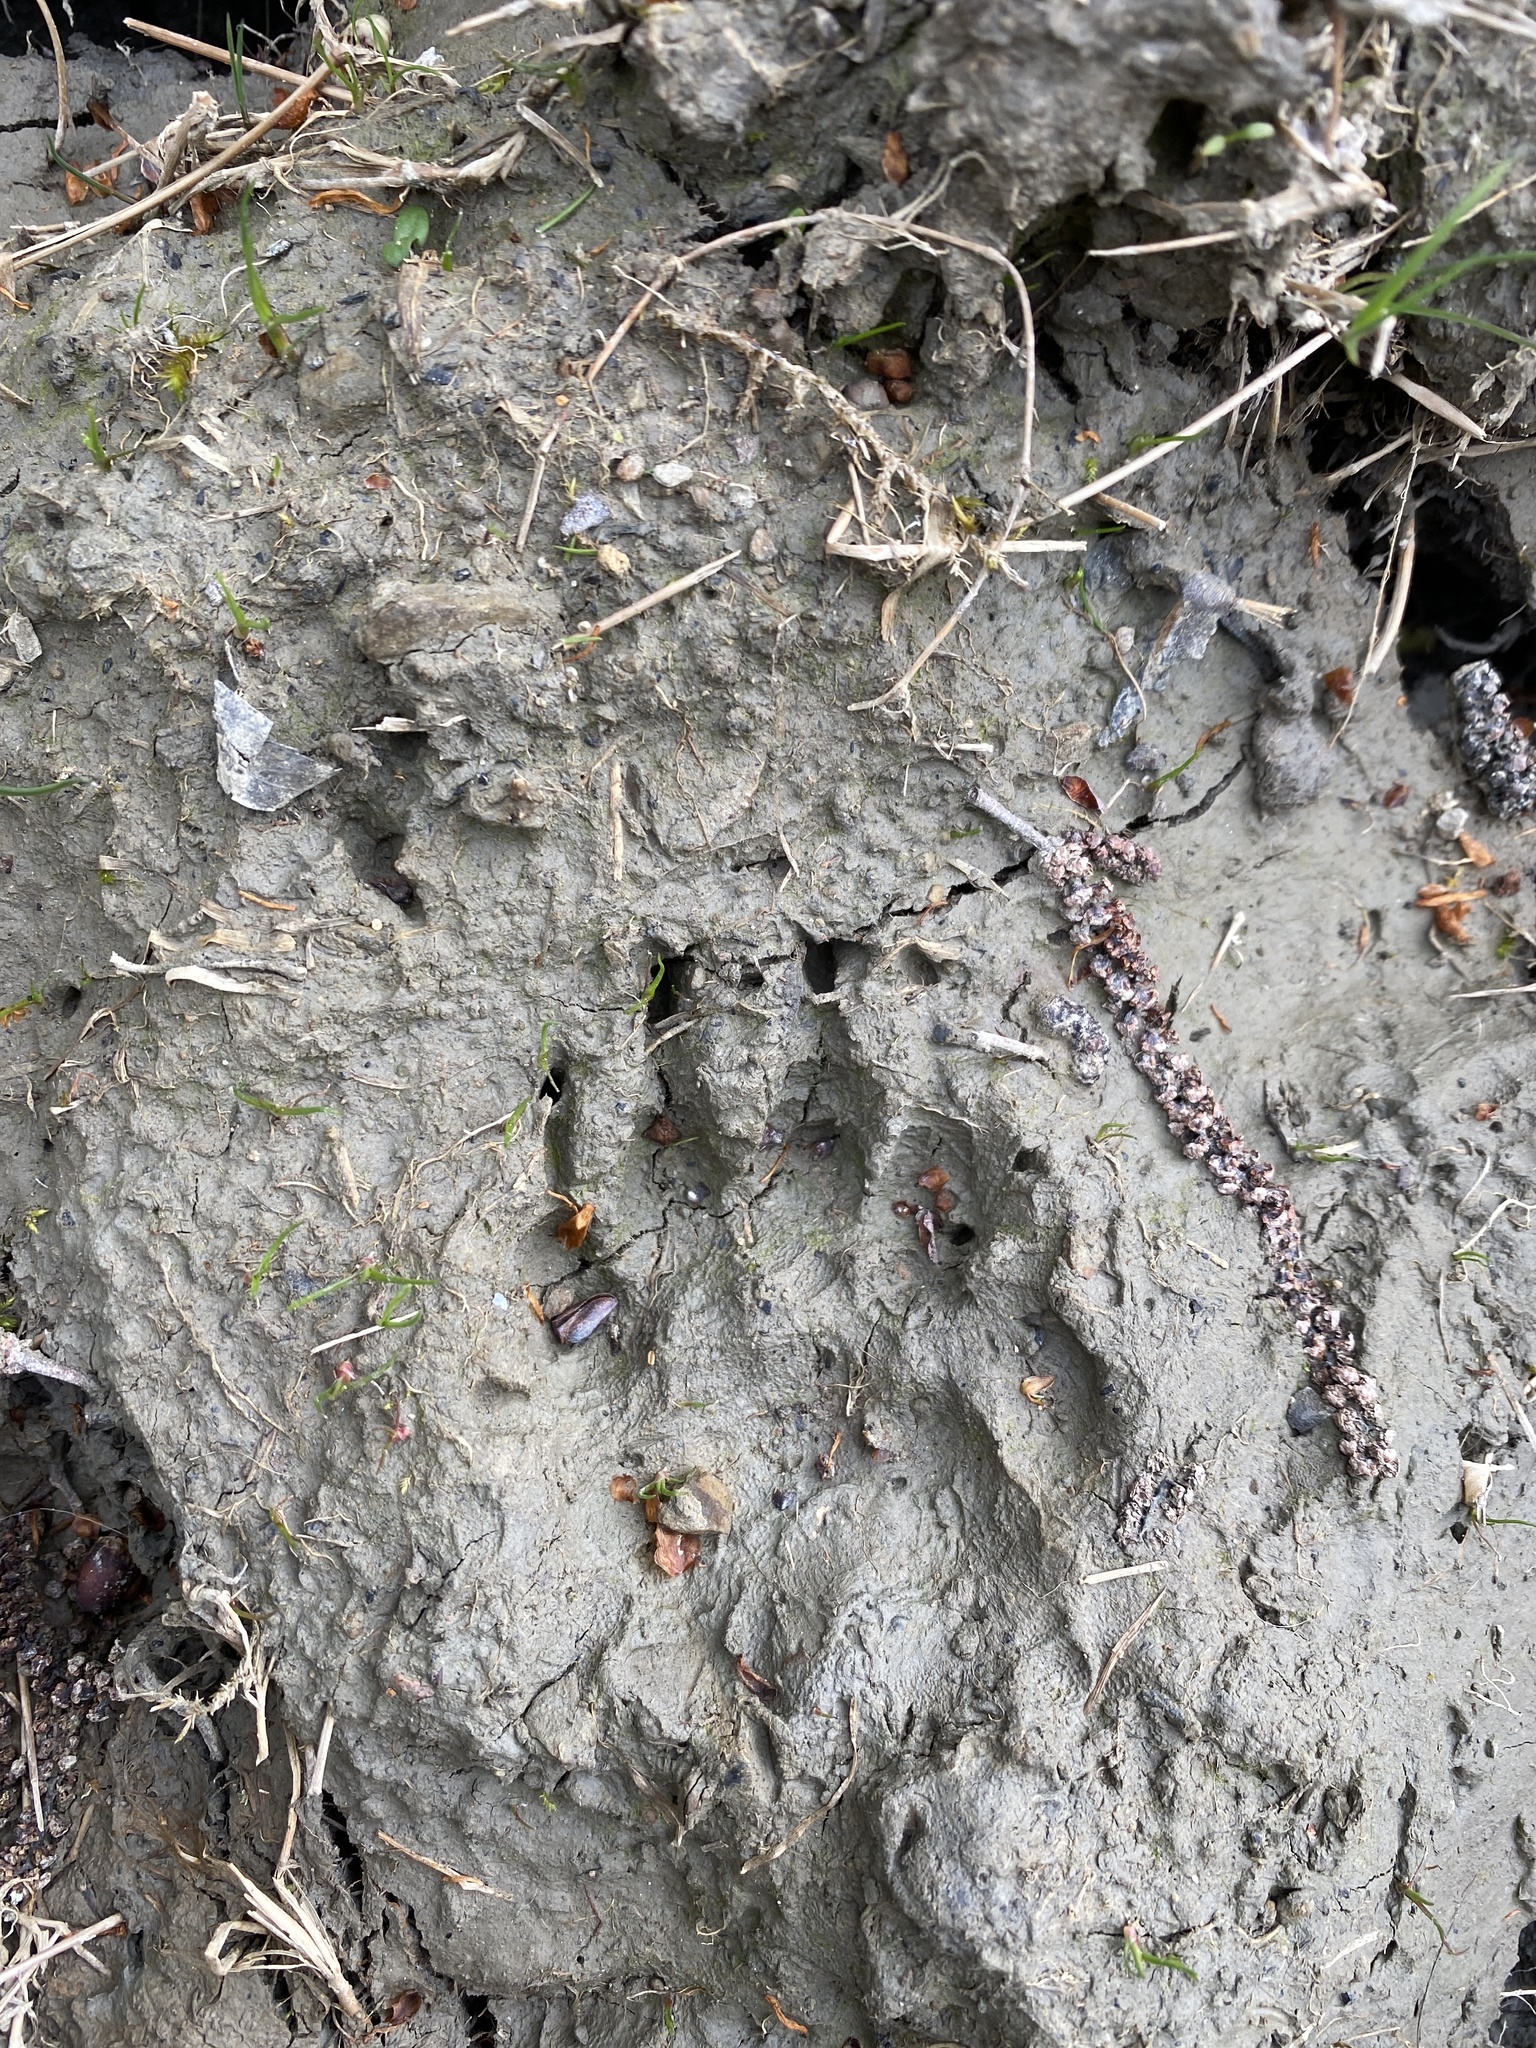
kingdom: Animalia
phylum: Chordata
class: Mammalia
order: Carnivora
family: Mustelidae
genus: Meles
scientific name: Meles meles
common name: Eurasian badger
